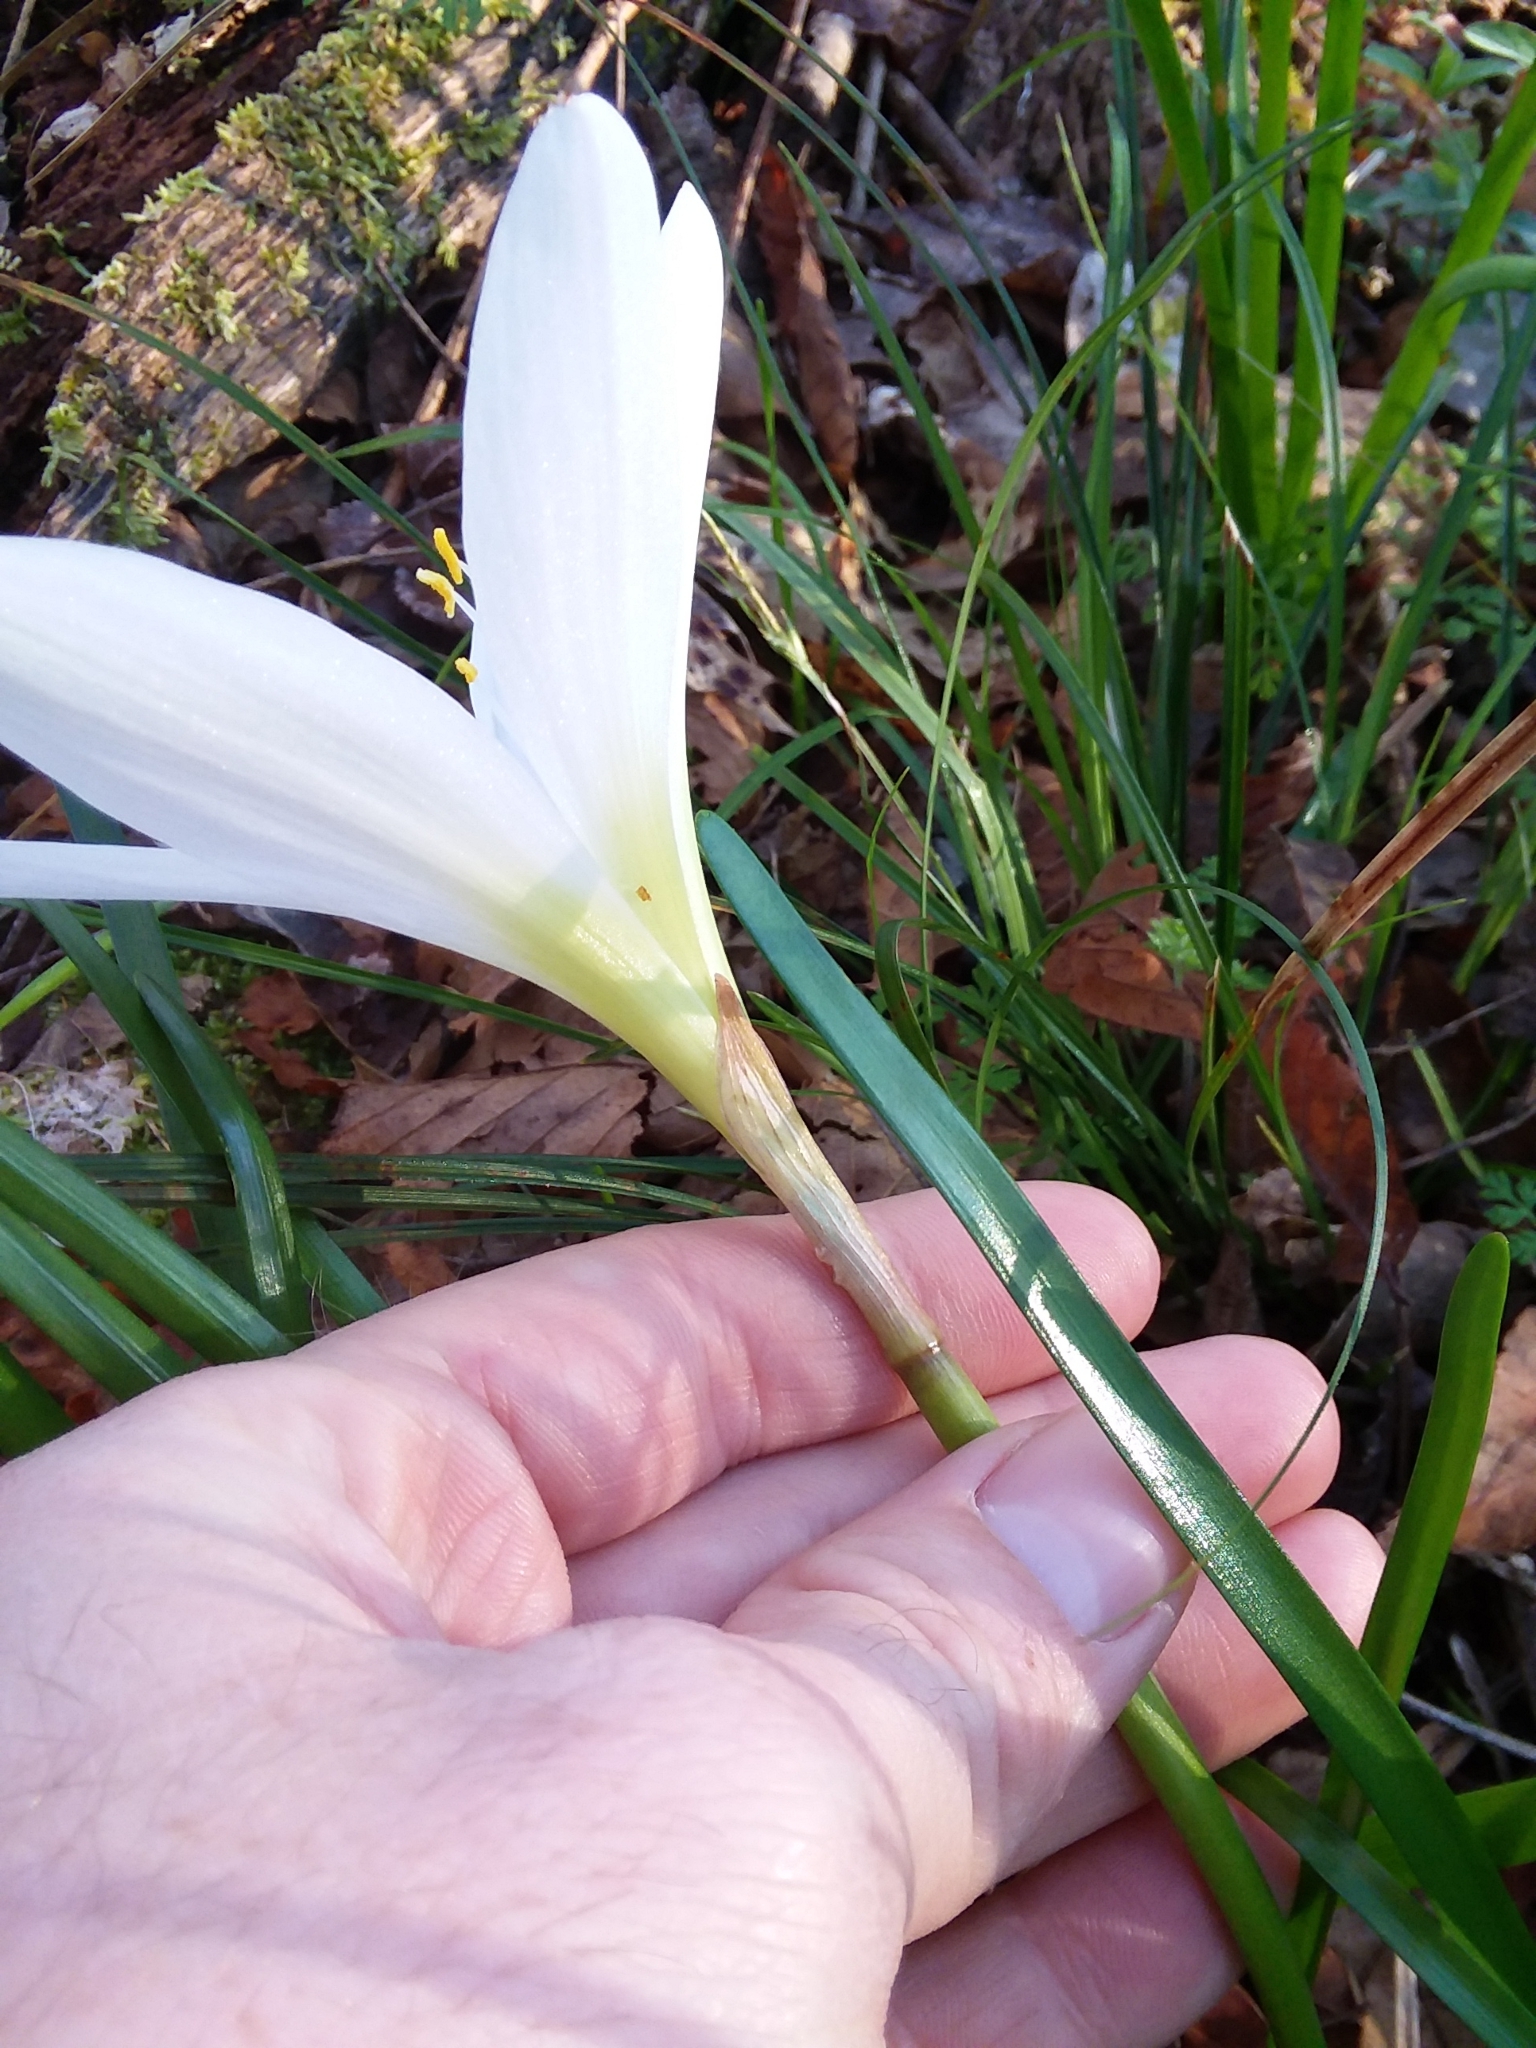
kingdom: Plantae
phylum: Tracheophyta
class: Liliopsida
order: Asparagales
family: Amaryllidaceae
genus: Zephyranthes
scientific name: Zephyranthes atamasco
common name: Atamasco lily
